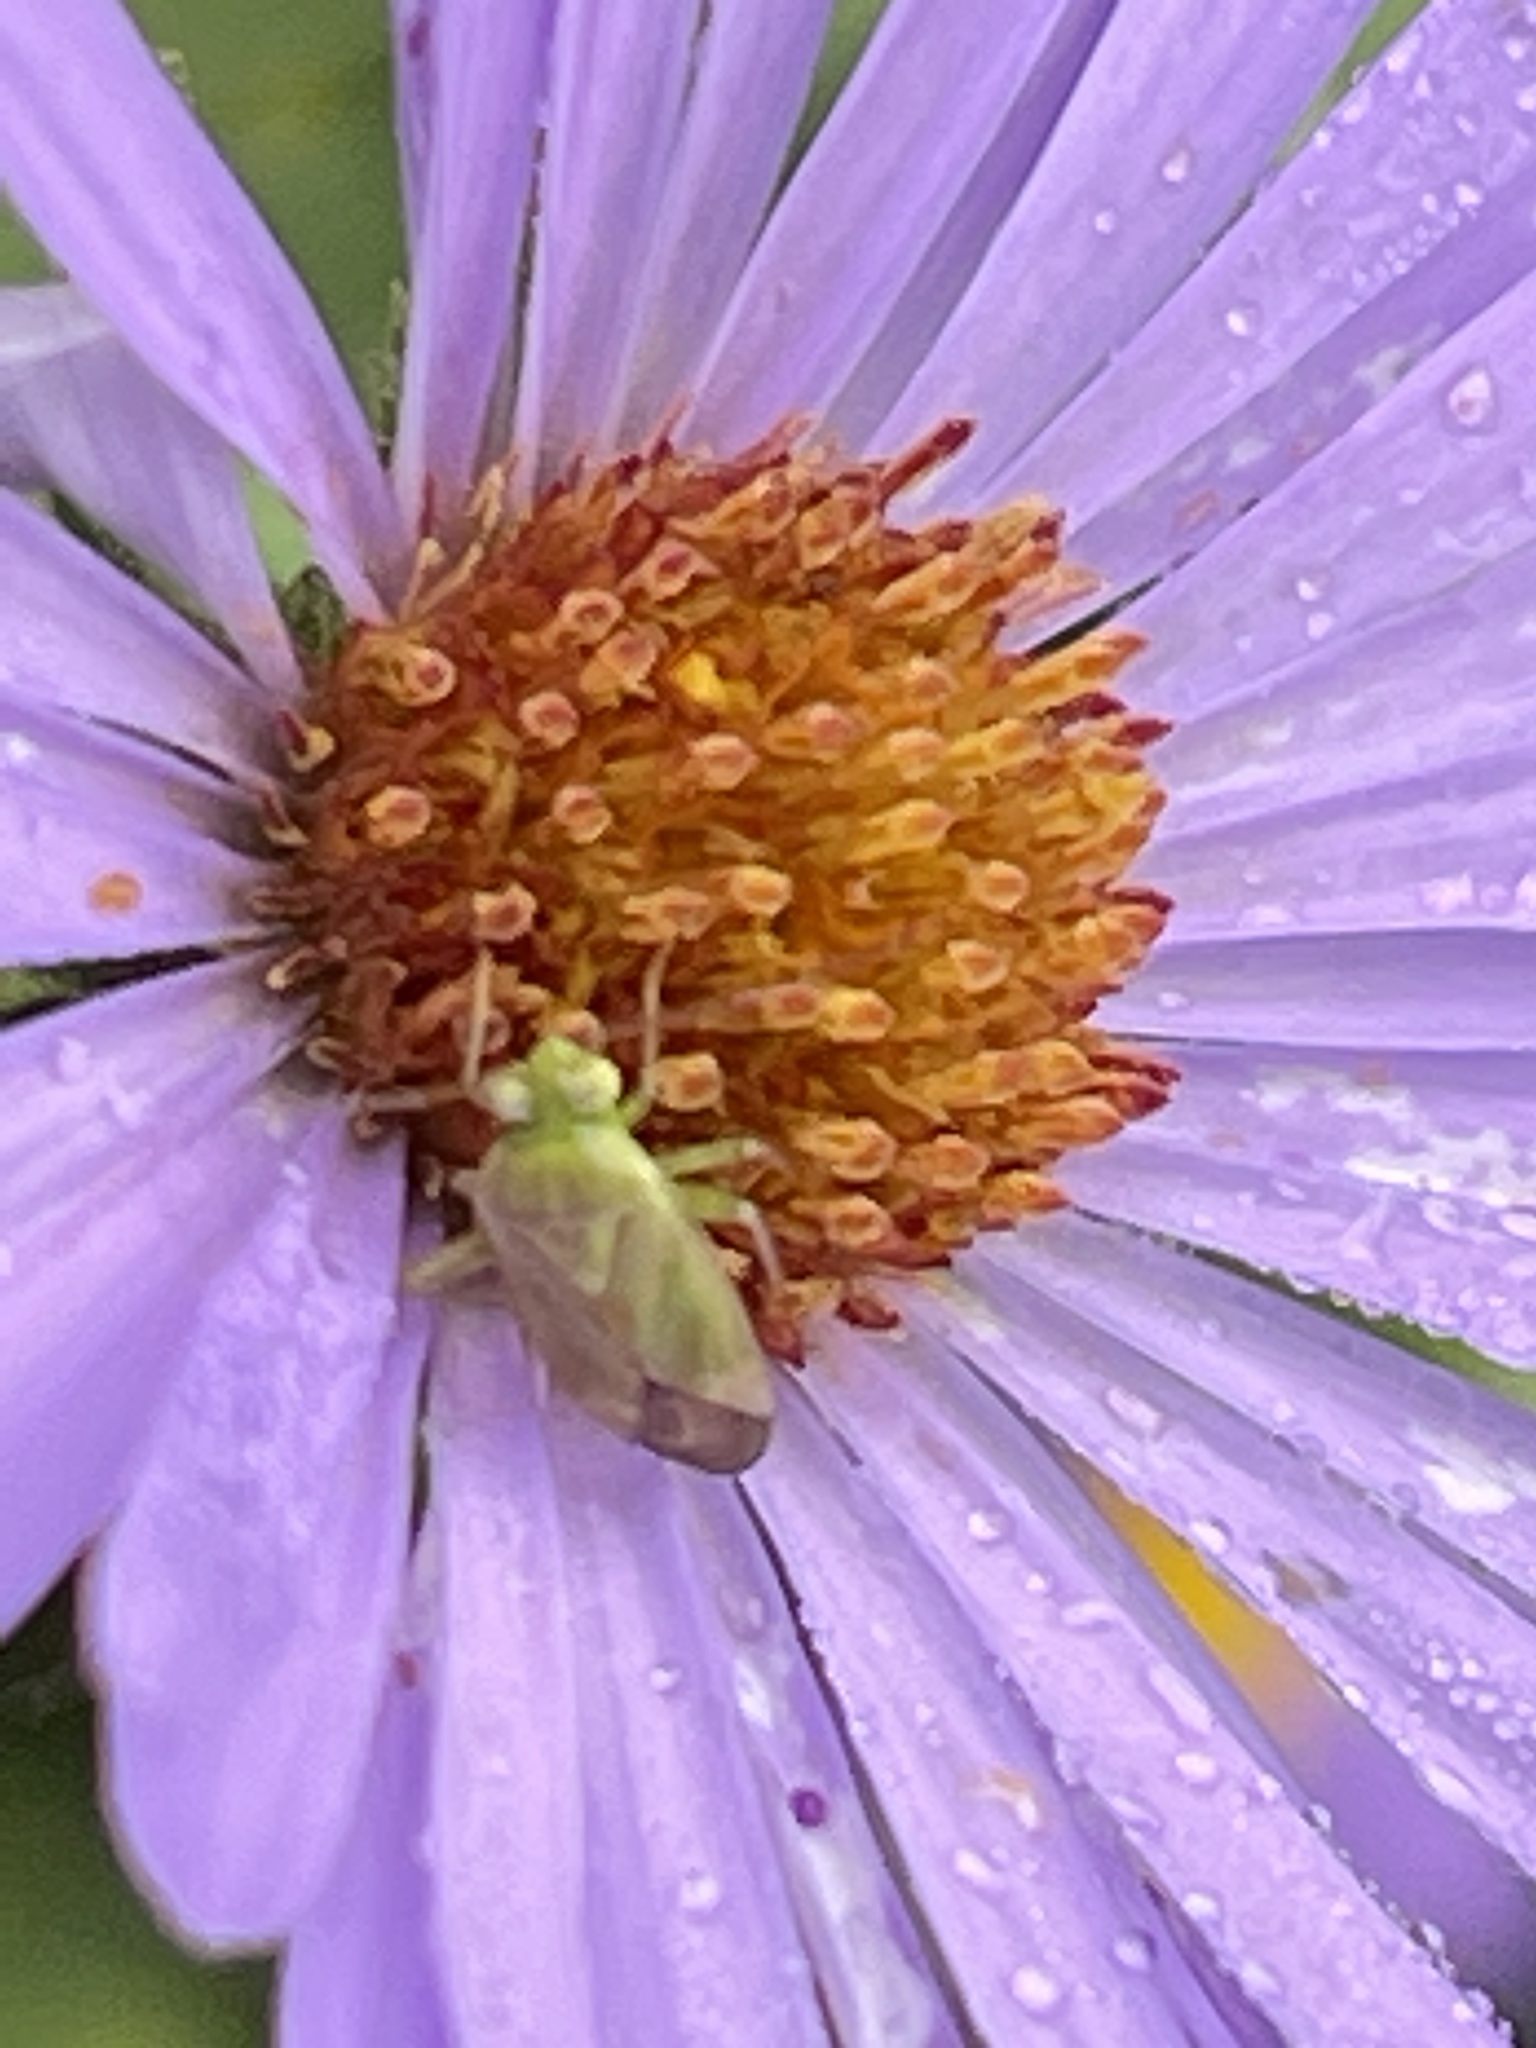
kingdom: Animalia
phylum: Arthropoda
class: Insecta
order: Hemiptera
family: Miridae
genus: Taylorilygus
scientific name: Taylorilygus apicalis
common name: Plant bug
